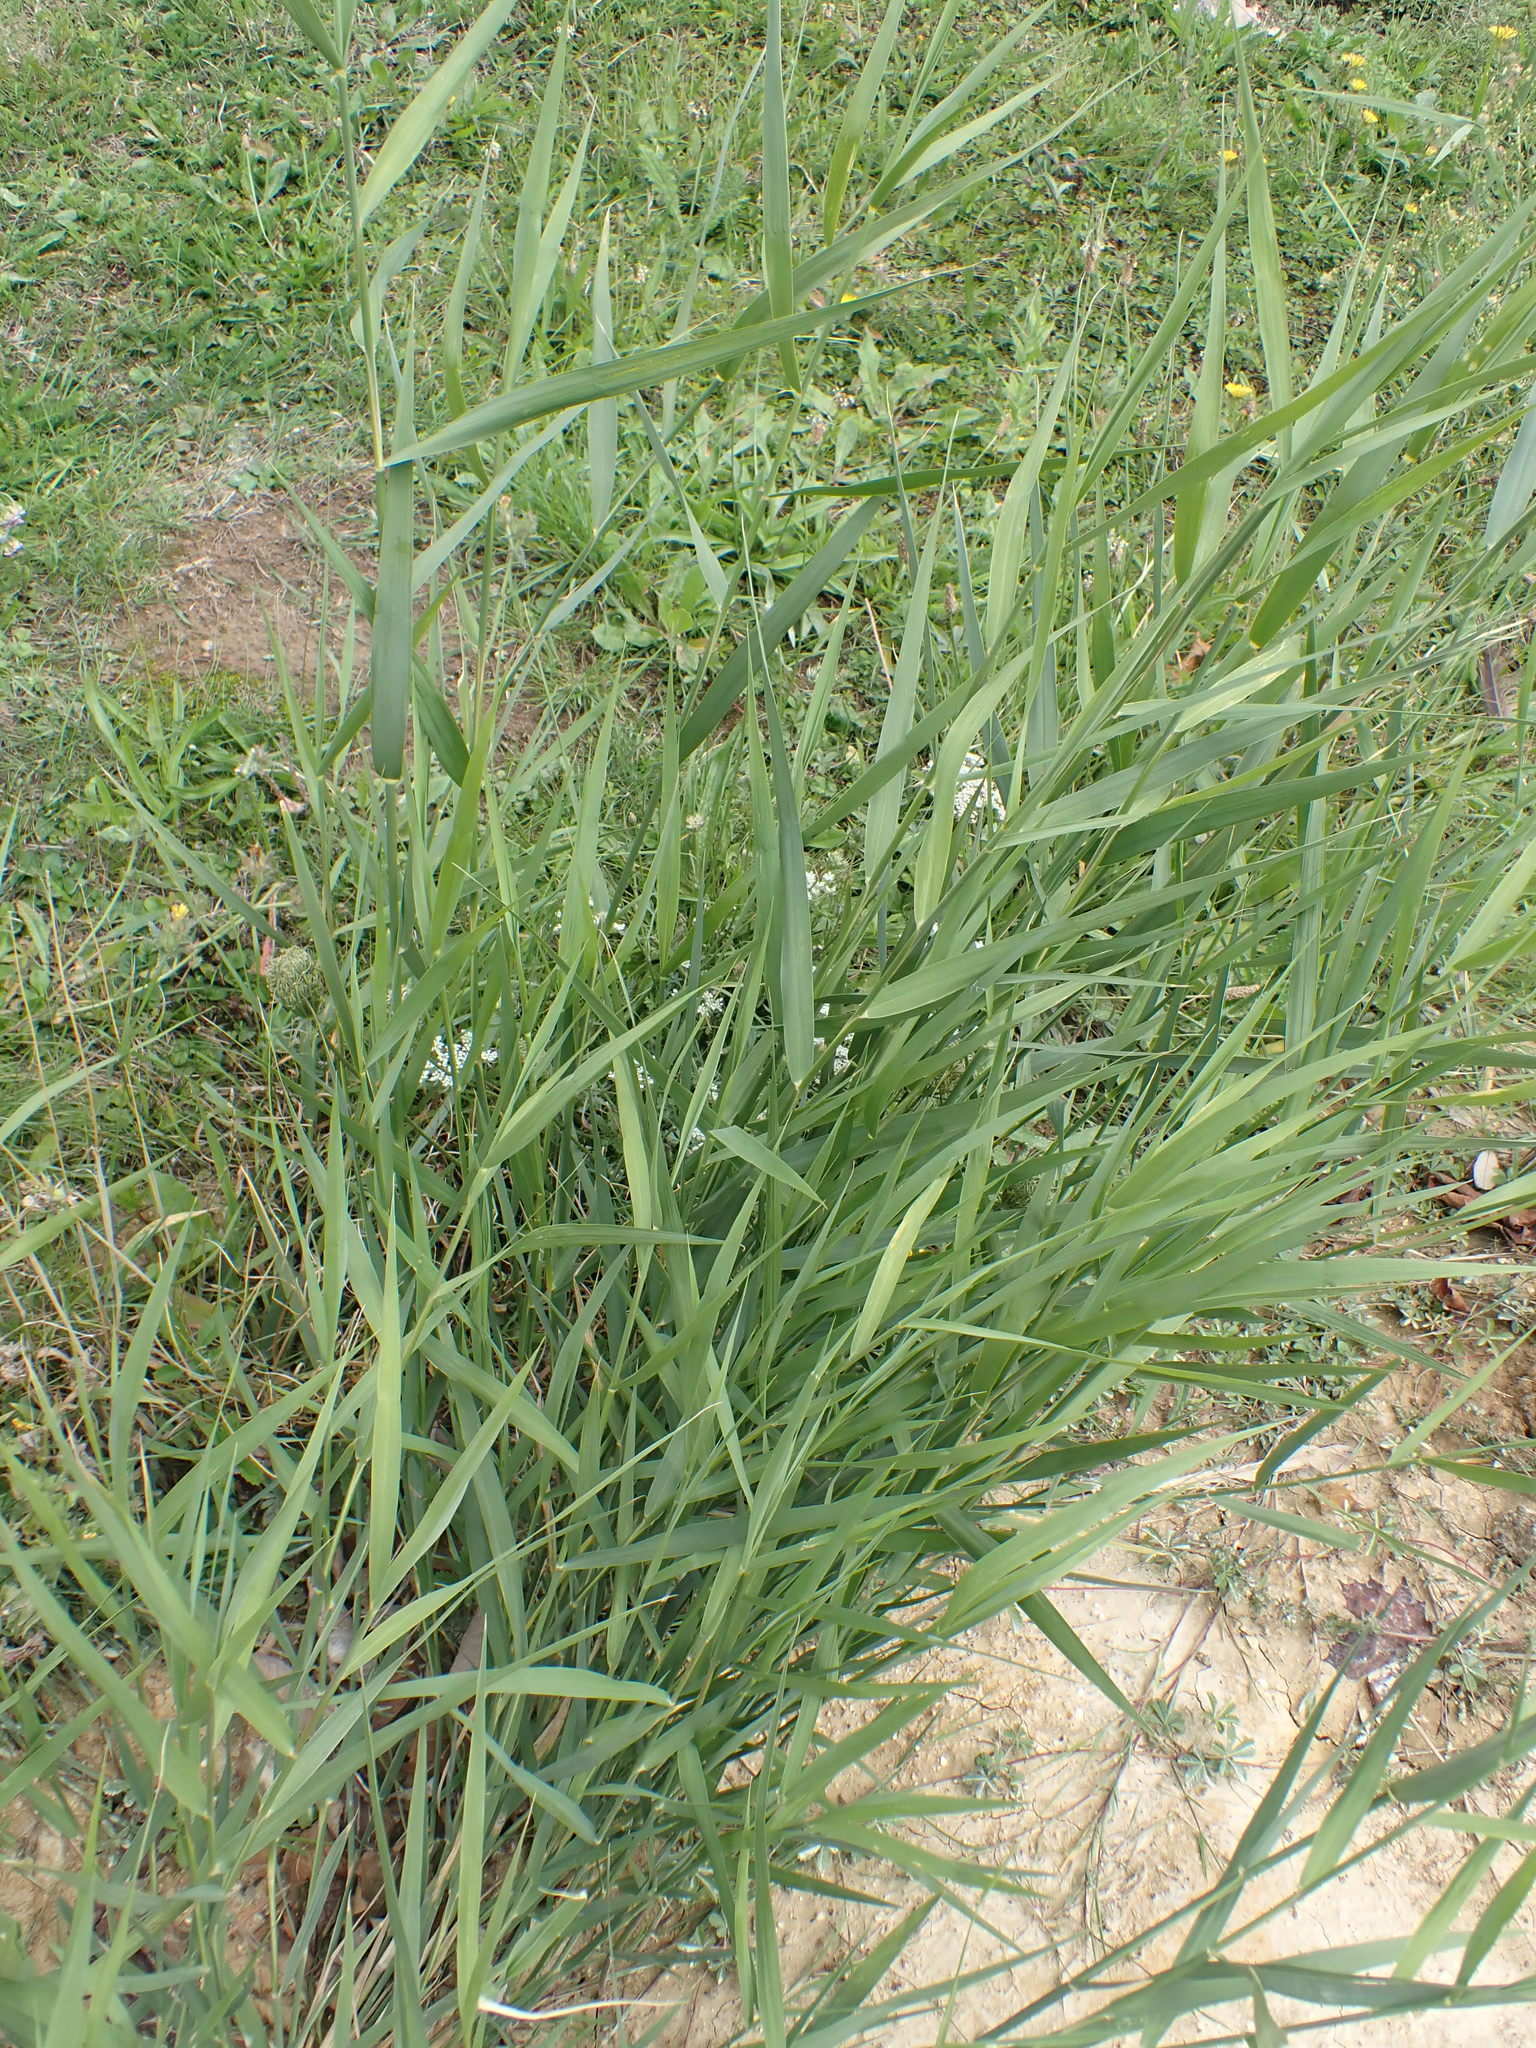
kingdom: Plantae
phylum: Tracheophyta
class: Liliopsida
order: Poales
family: Poaceae
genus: Phragmites
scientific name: Phragmites australis
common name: Common reed
